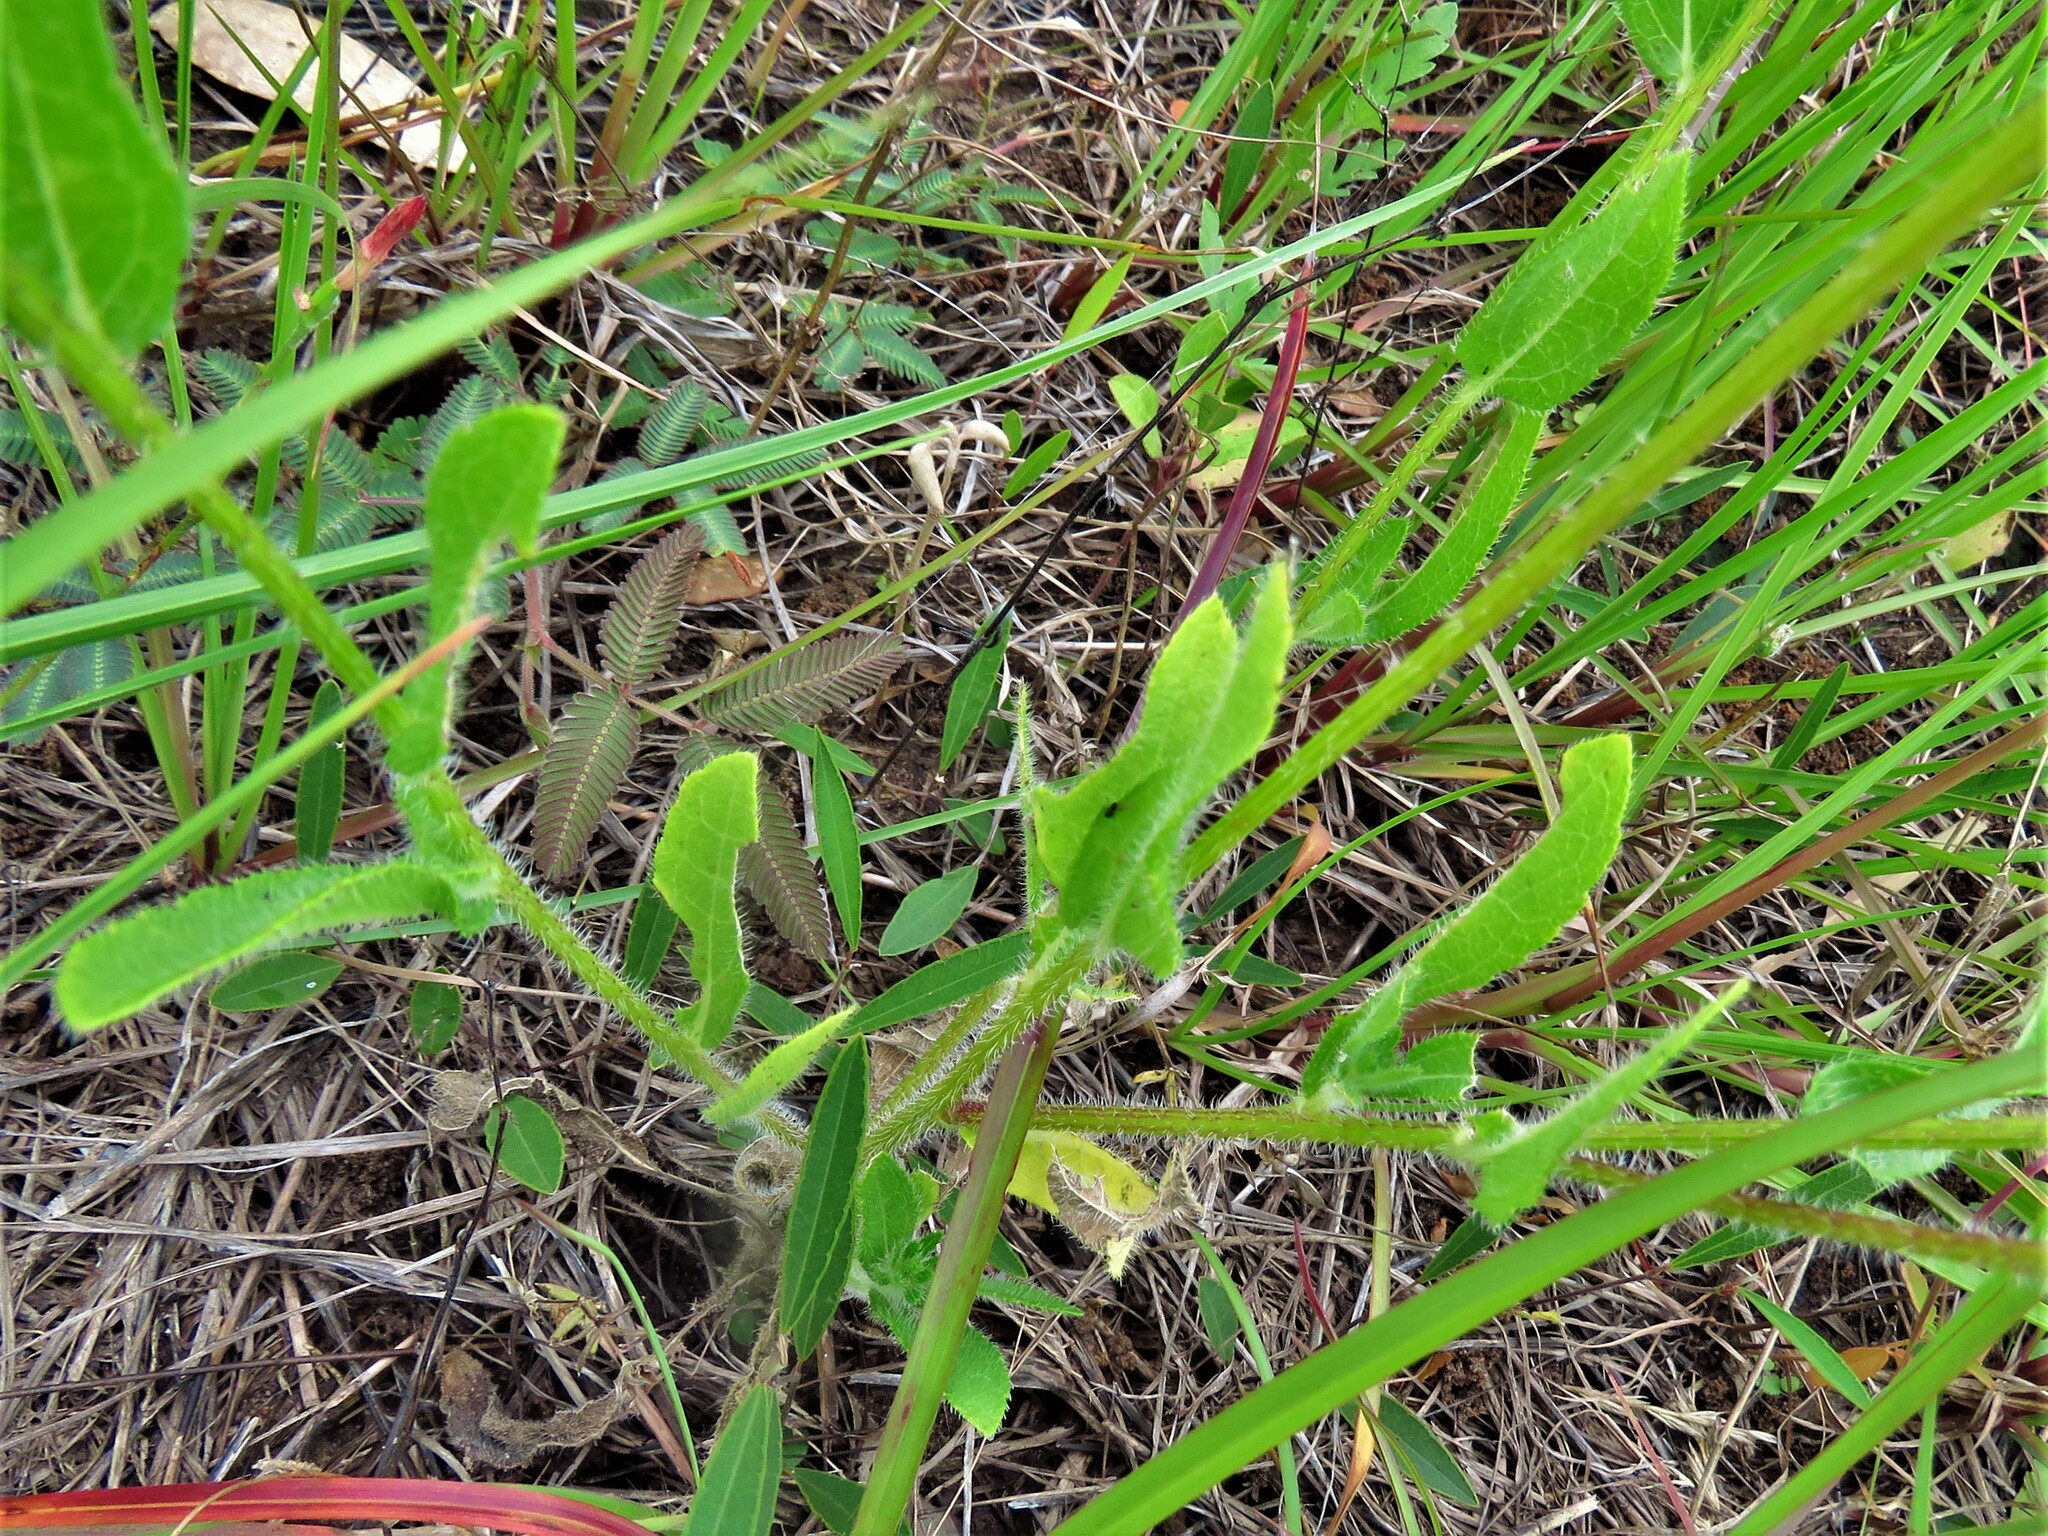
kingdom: Plantae
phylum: Tracheophyta
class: Magnoliopsida
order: Asterales
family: Asteraceae
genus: Rudbeckia
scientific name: Rudbeckia hirta
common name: Black-eyed-susan
